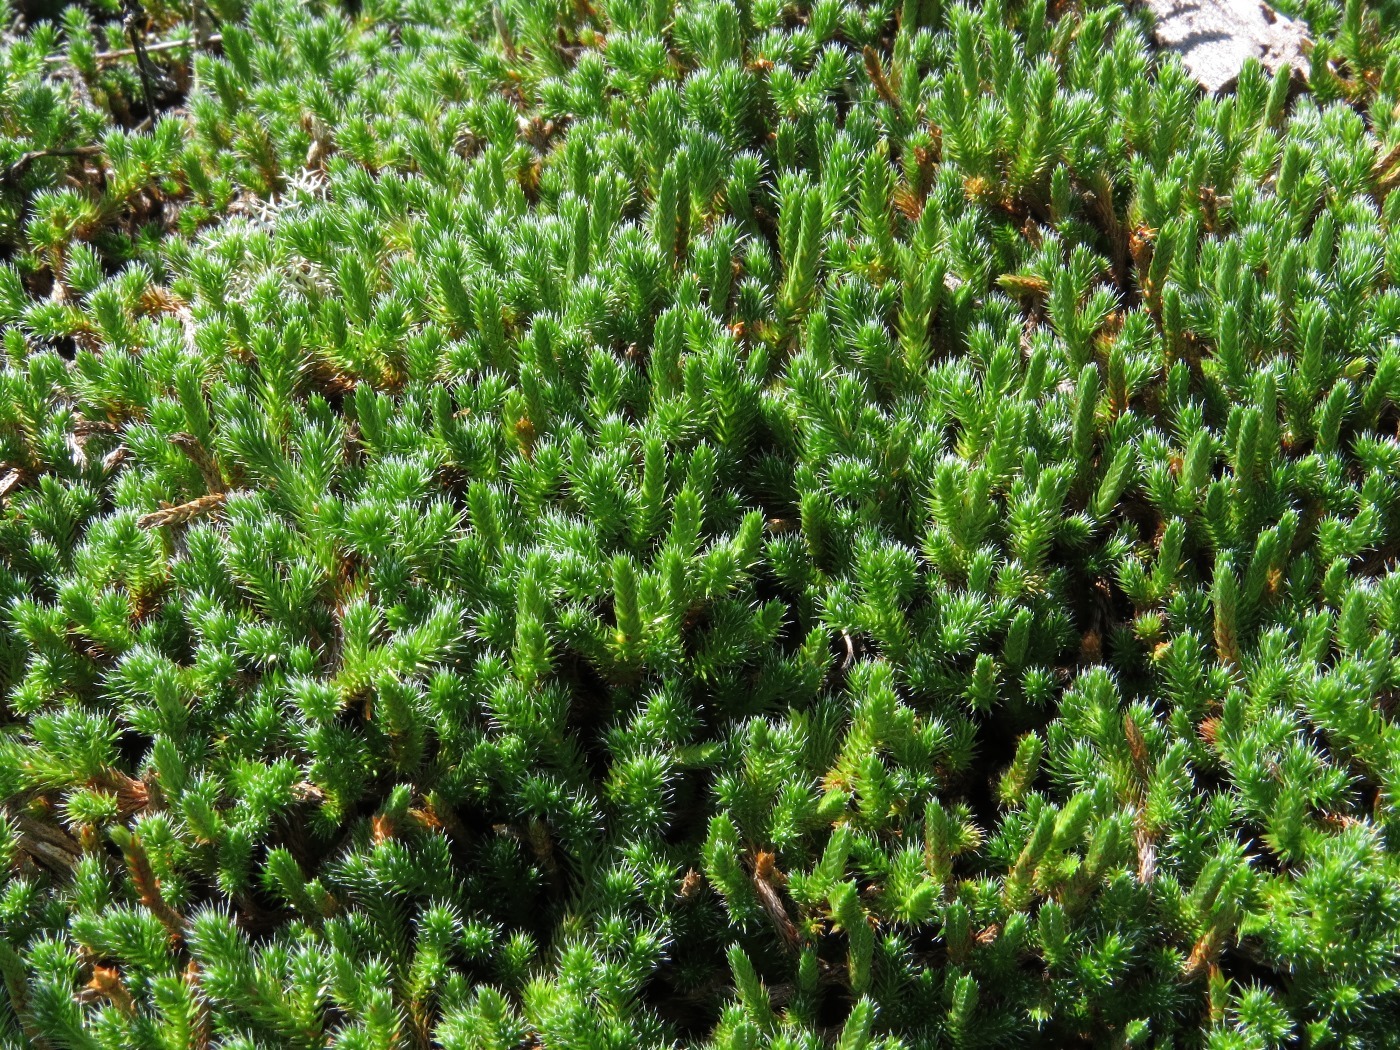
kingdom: Plantae
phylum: Tracheophyta
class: Lycopodiopsida
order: Selaginellales
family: Selaginellaceae
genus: Selaginella
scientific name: Selaginella rupestris
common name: Dwarf spikemoss
